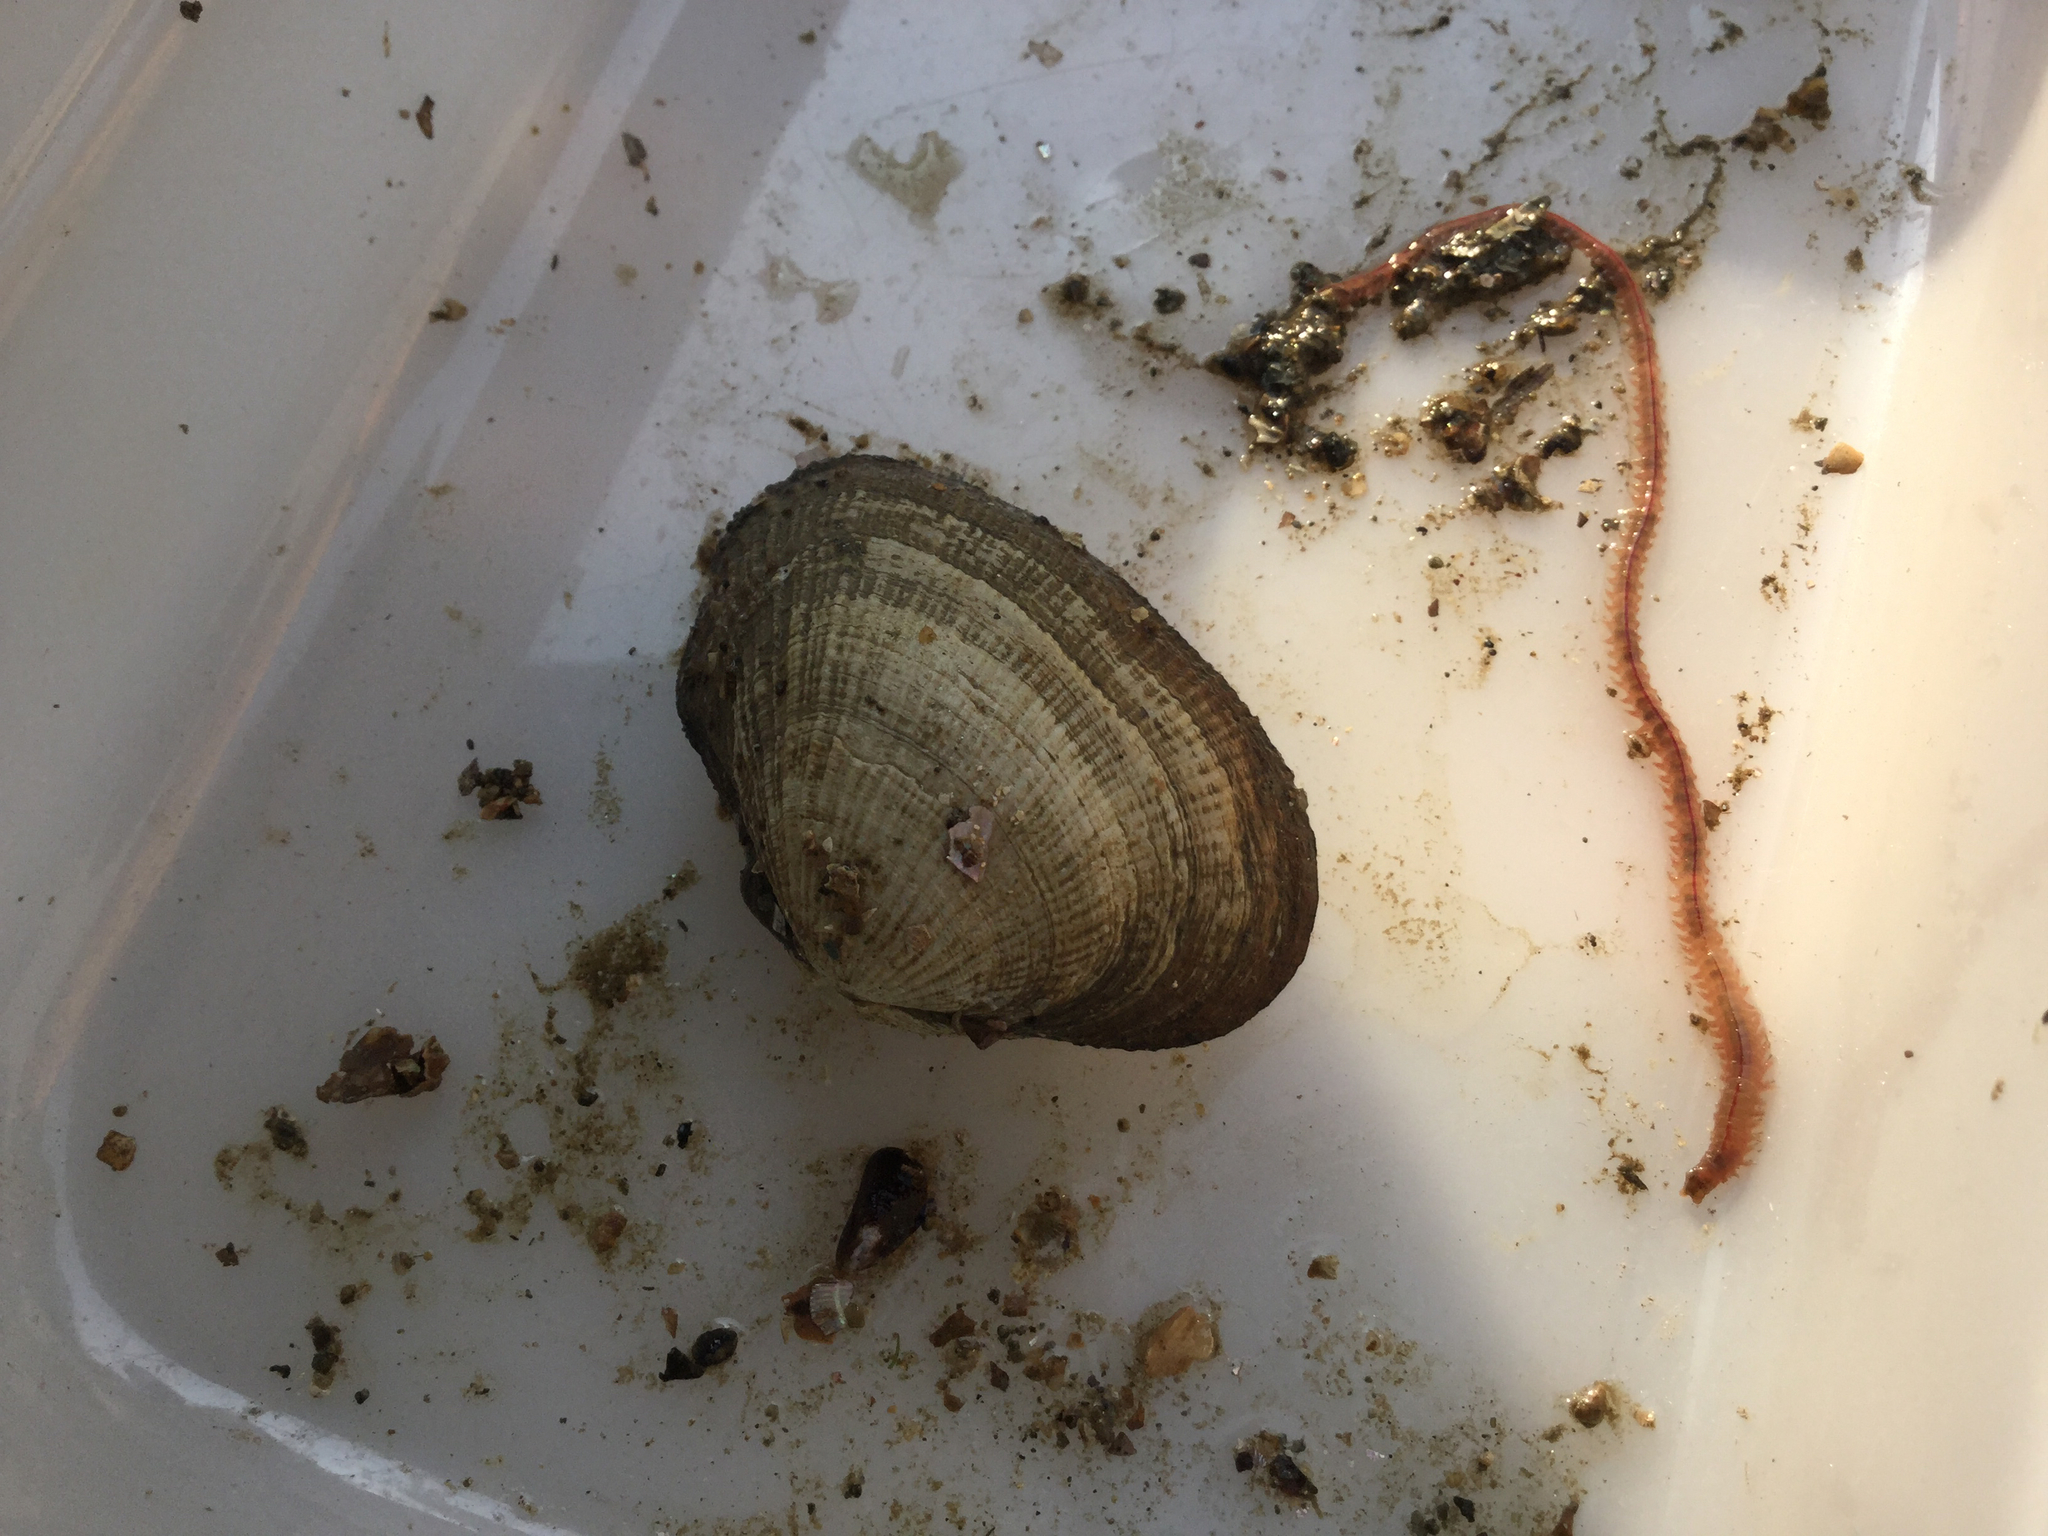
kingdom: Animalia
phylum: Mollusca
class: Bivalvia
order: Cardiida
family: Psammobiidae
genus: Asaphis
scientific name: Asaphis violascens
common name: Pacific asaphis
